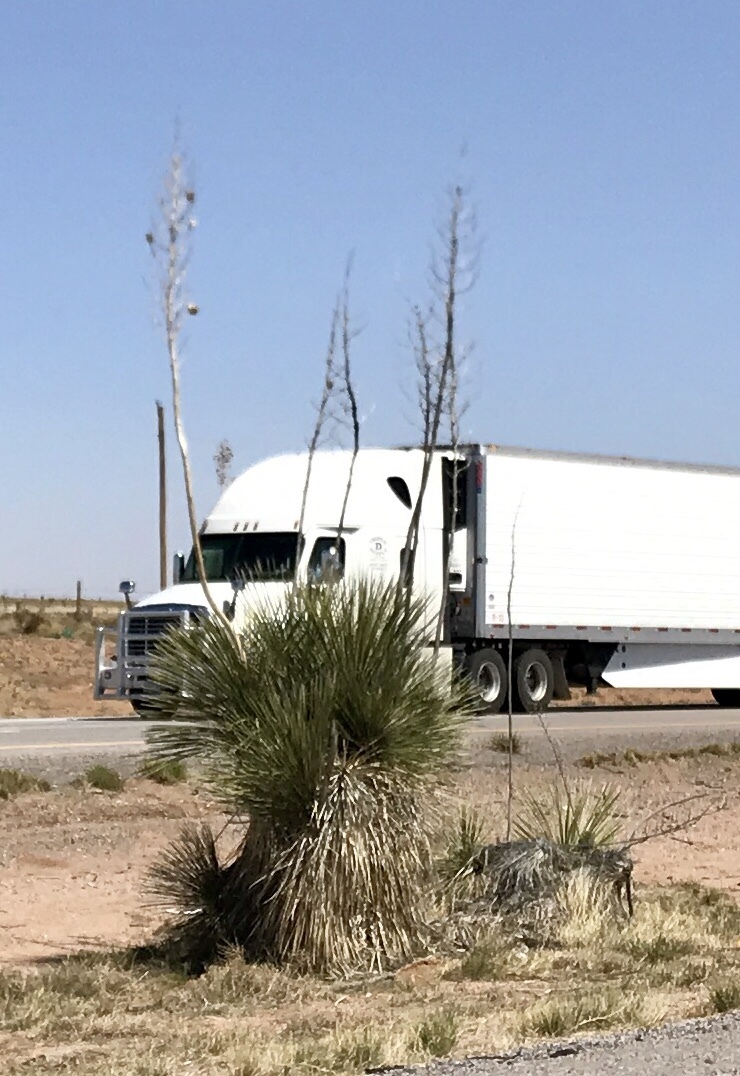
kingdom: Plantae
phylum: Tracheophyta
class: Liliopsida
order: Asparagales
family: Asparagaceae
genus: Yucca
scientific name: Yucca elata
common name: Palmella
